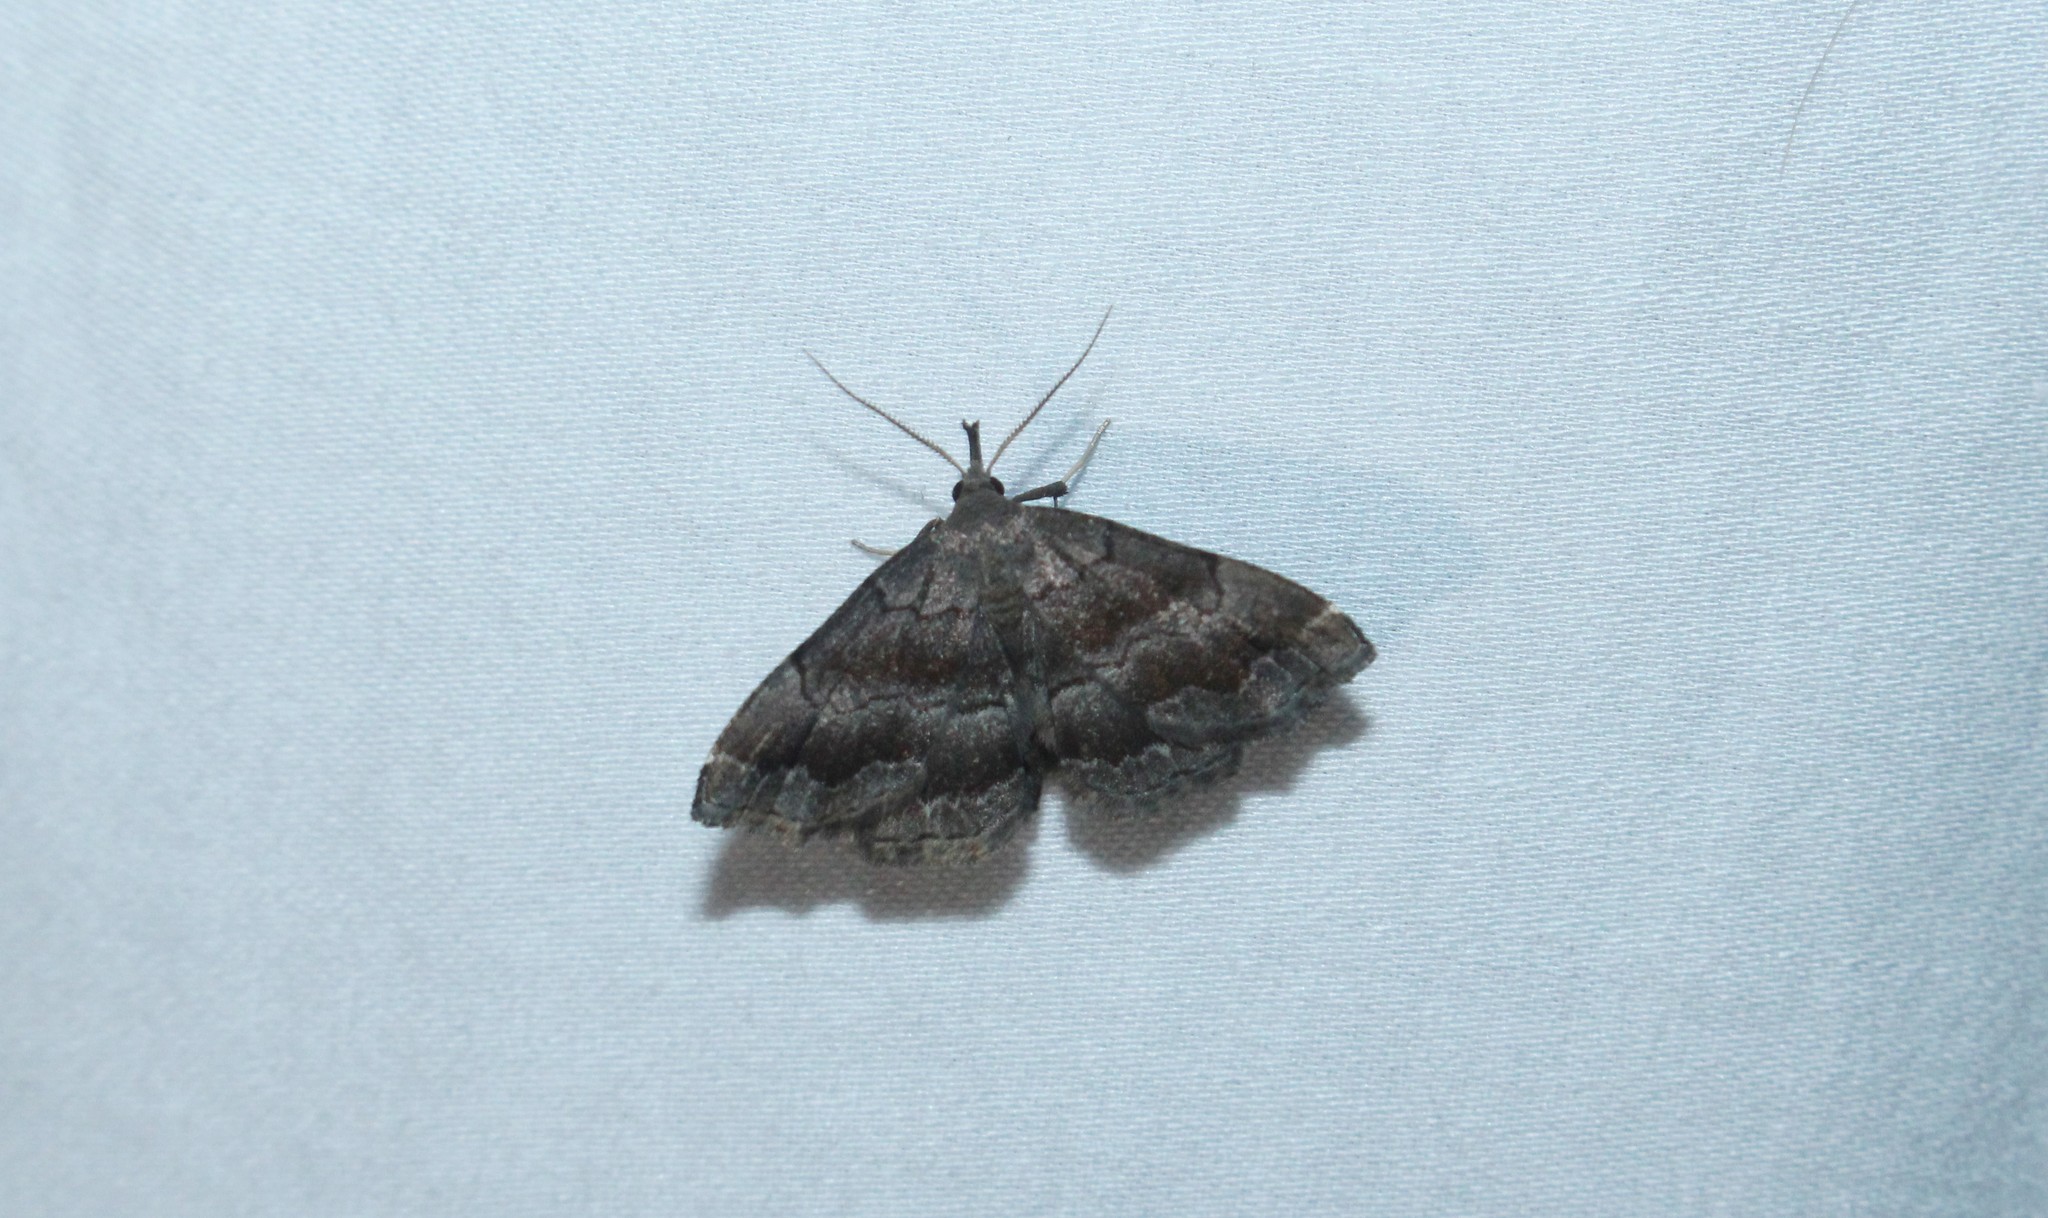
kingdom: Animalia
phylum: Arthropoda
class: Insecta
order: Lepidoptera
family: Erebidae
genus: Phalaenostola
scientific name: Phalaenostola larentioides
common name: Black-banded owlet
